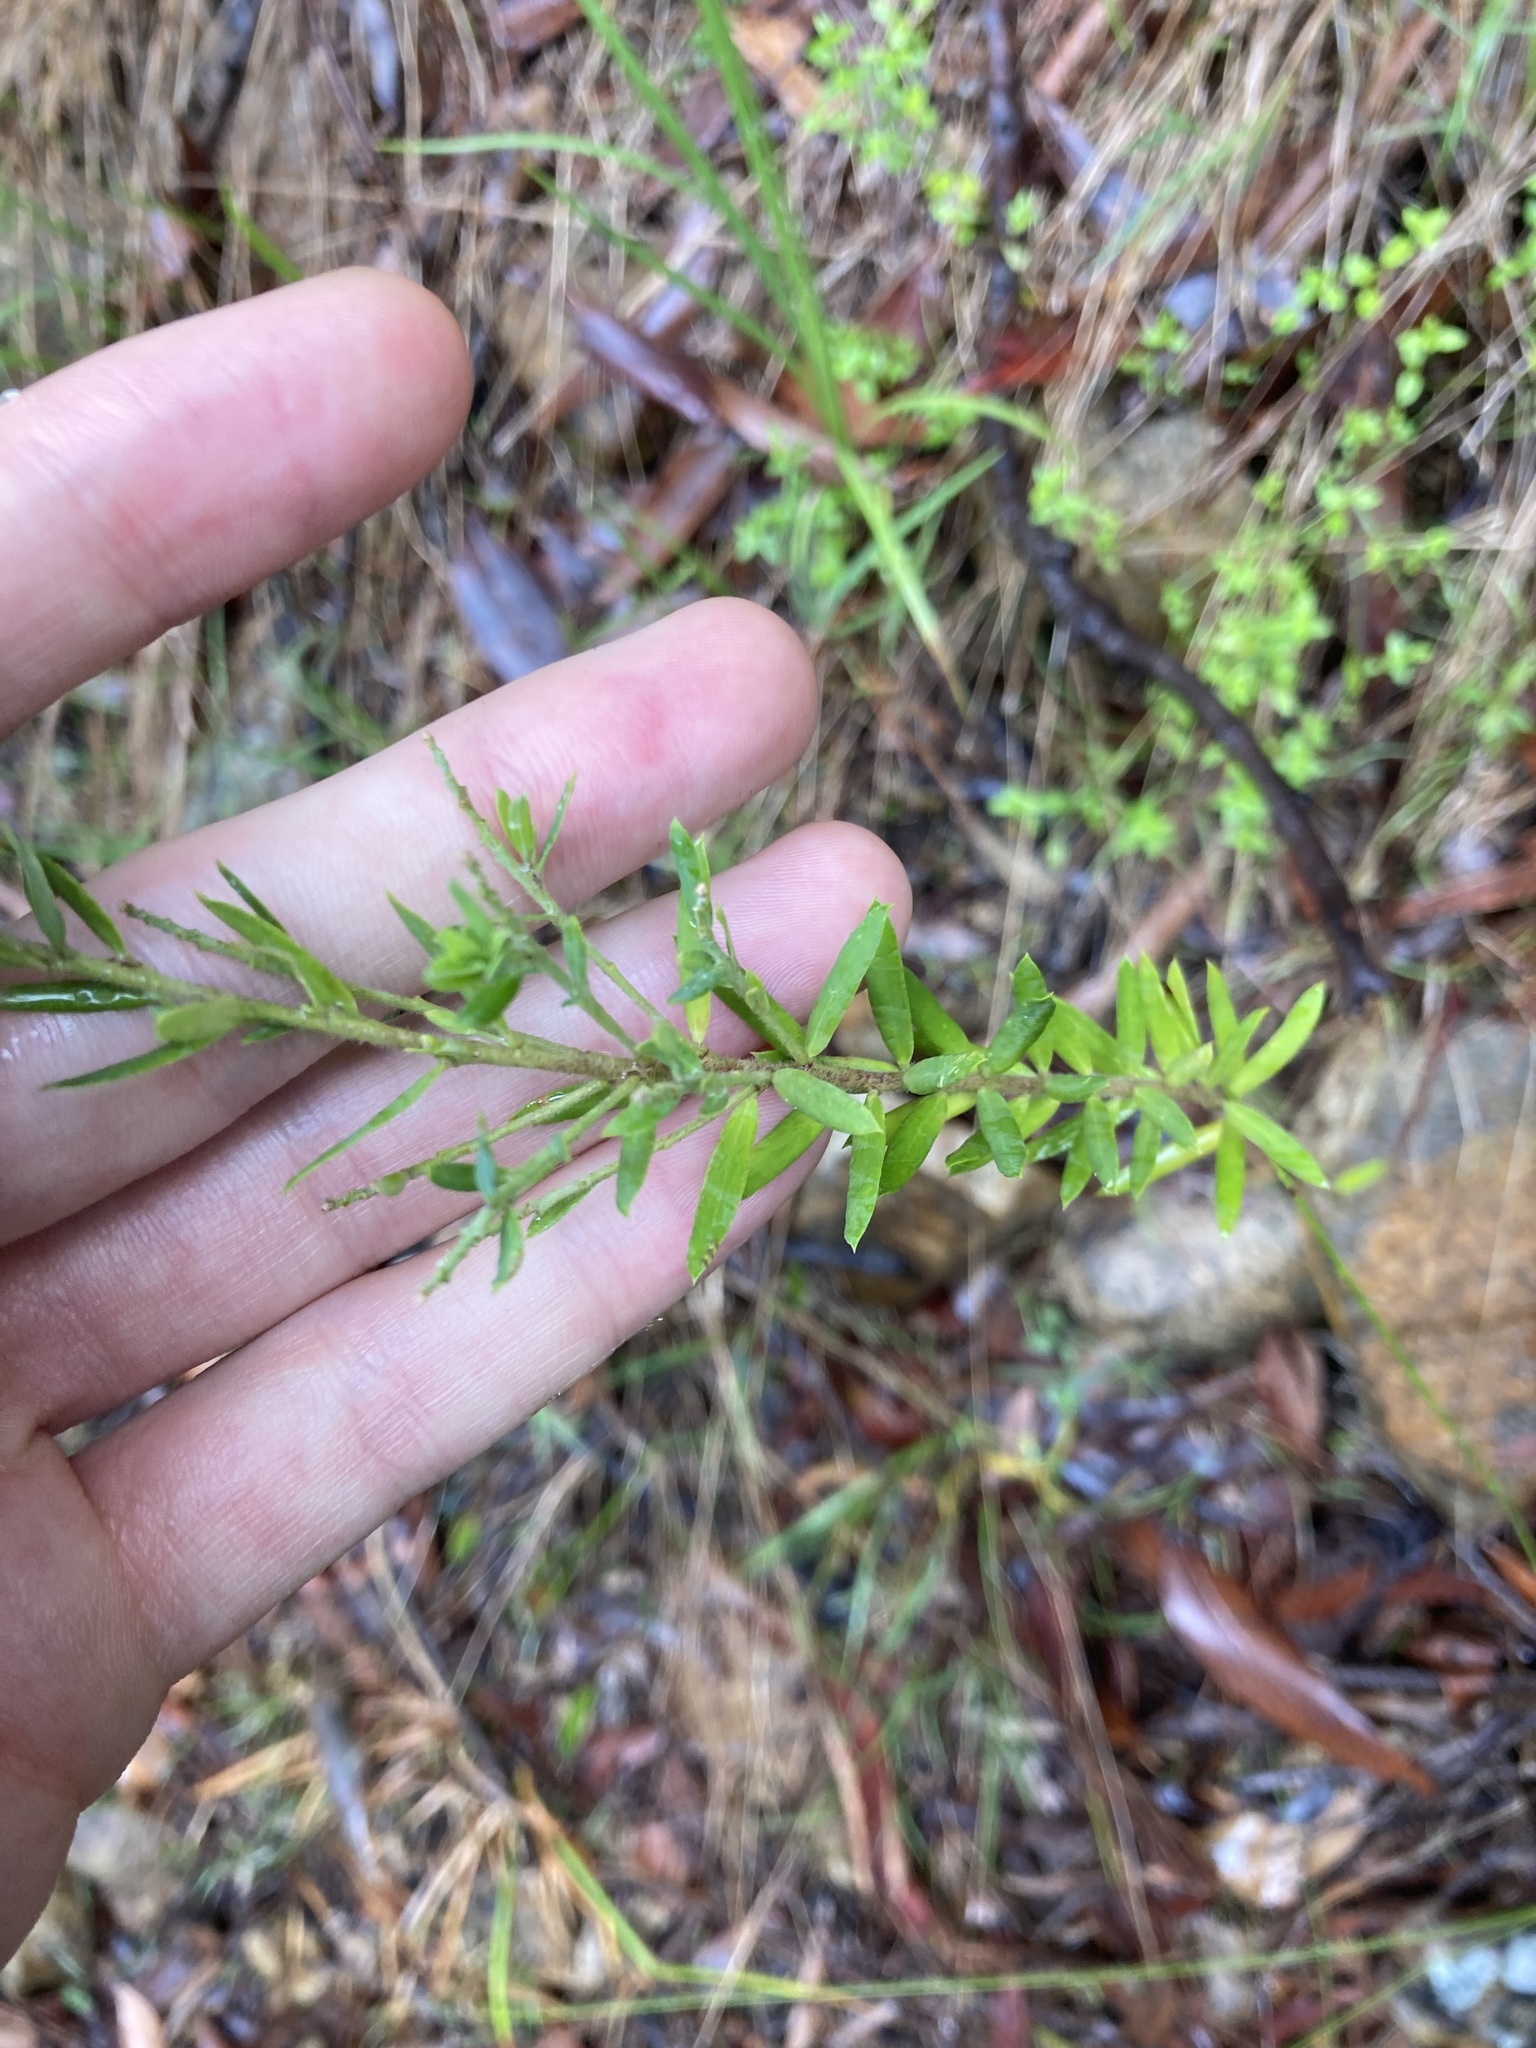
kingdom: Plantae
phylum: Tracheophyta
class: Magnoliopsida
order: Fabales
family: Polygalaceae
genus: Comesperma
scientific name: Comesperma ericinum
